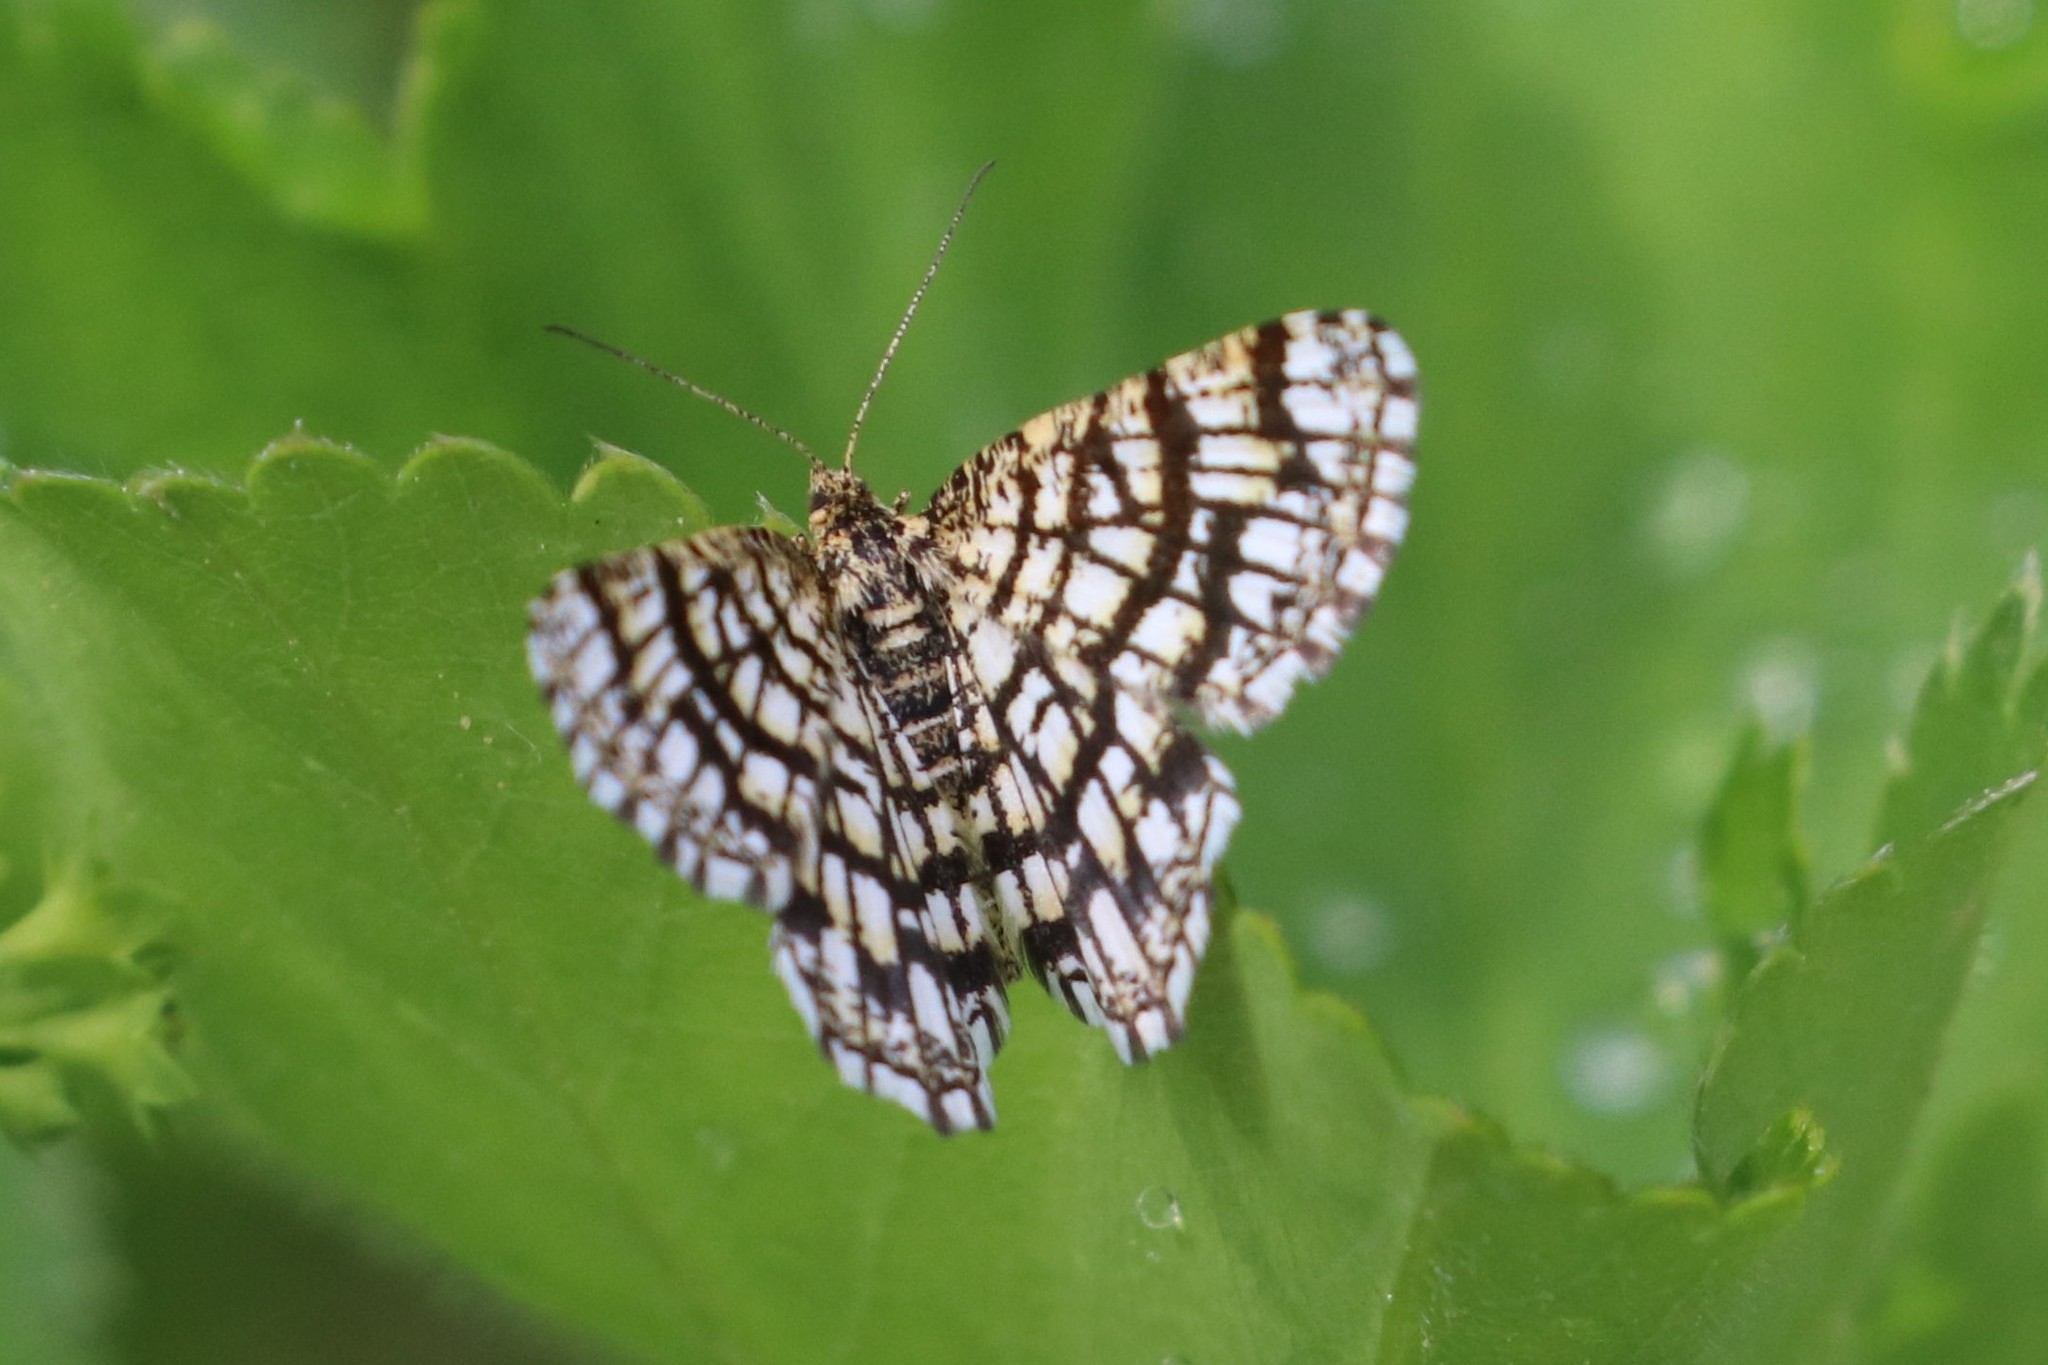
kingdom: Animalia
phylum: Arthropoda
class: Insecta
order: Lepidoptera
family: Geometridae
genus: Chiasmia
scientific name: Chiasmia clathrata
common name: Latticed heath
